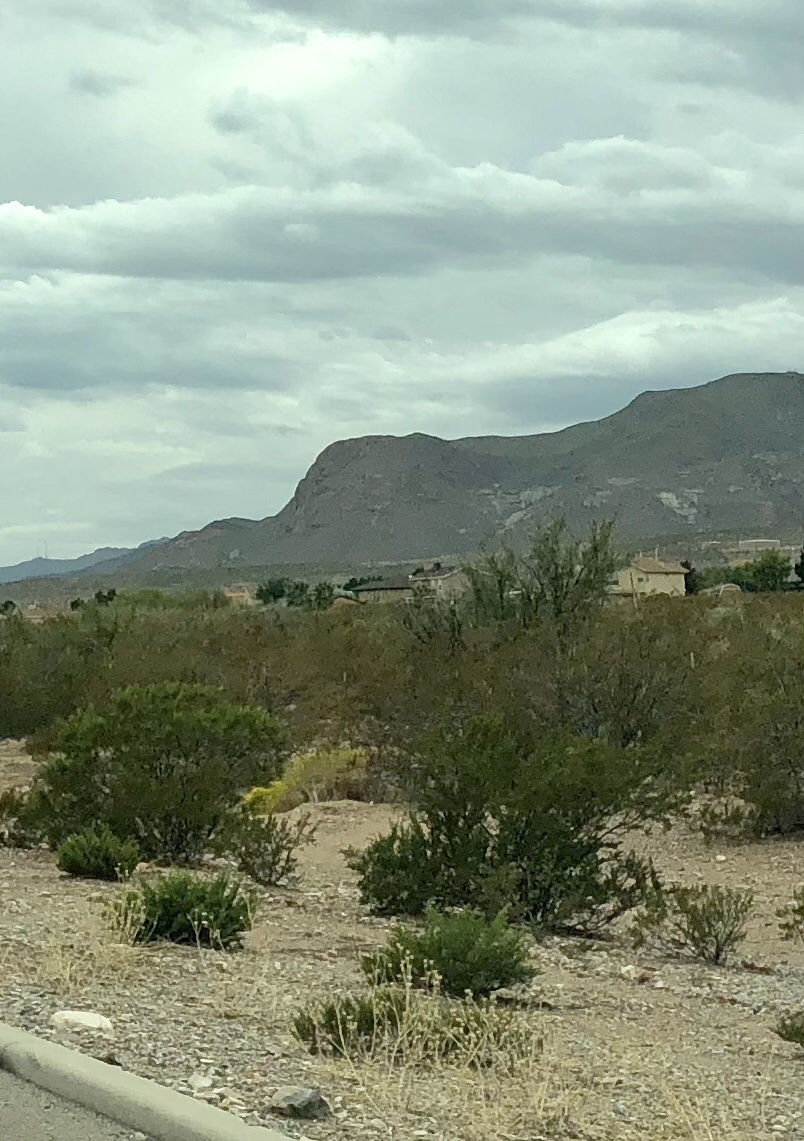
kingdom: Plantae
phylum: Tracheophyta
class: Magnoliopsida
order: Zygophyllales
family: Zygophyllaceae
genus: Larrea
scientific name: Larrea tridentata
